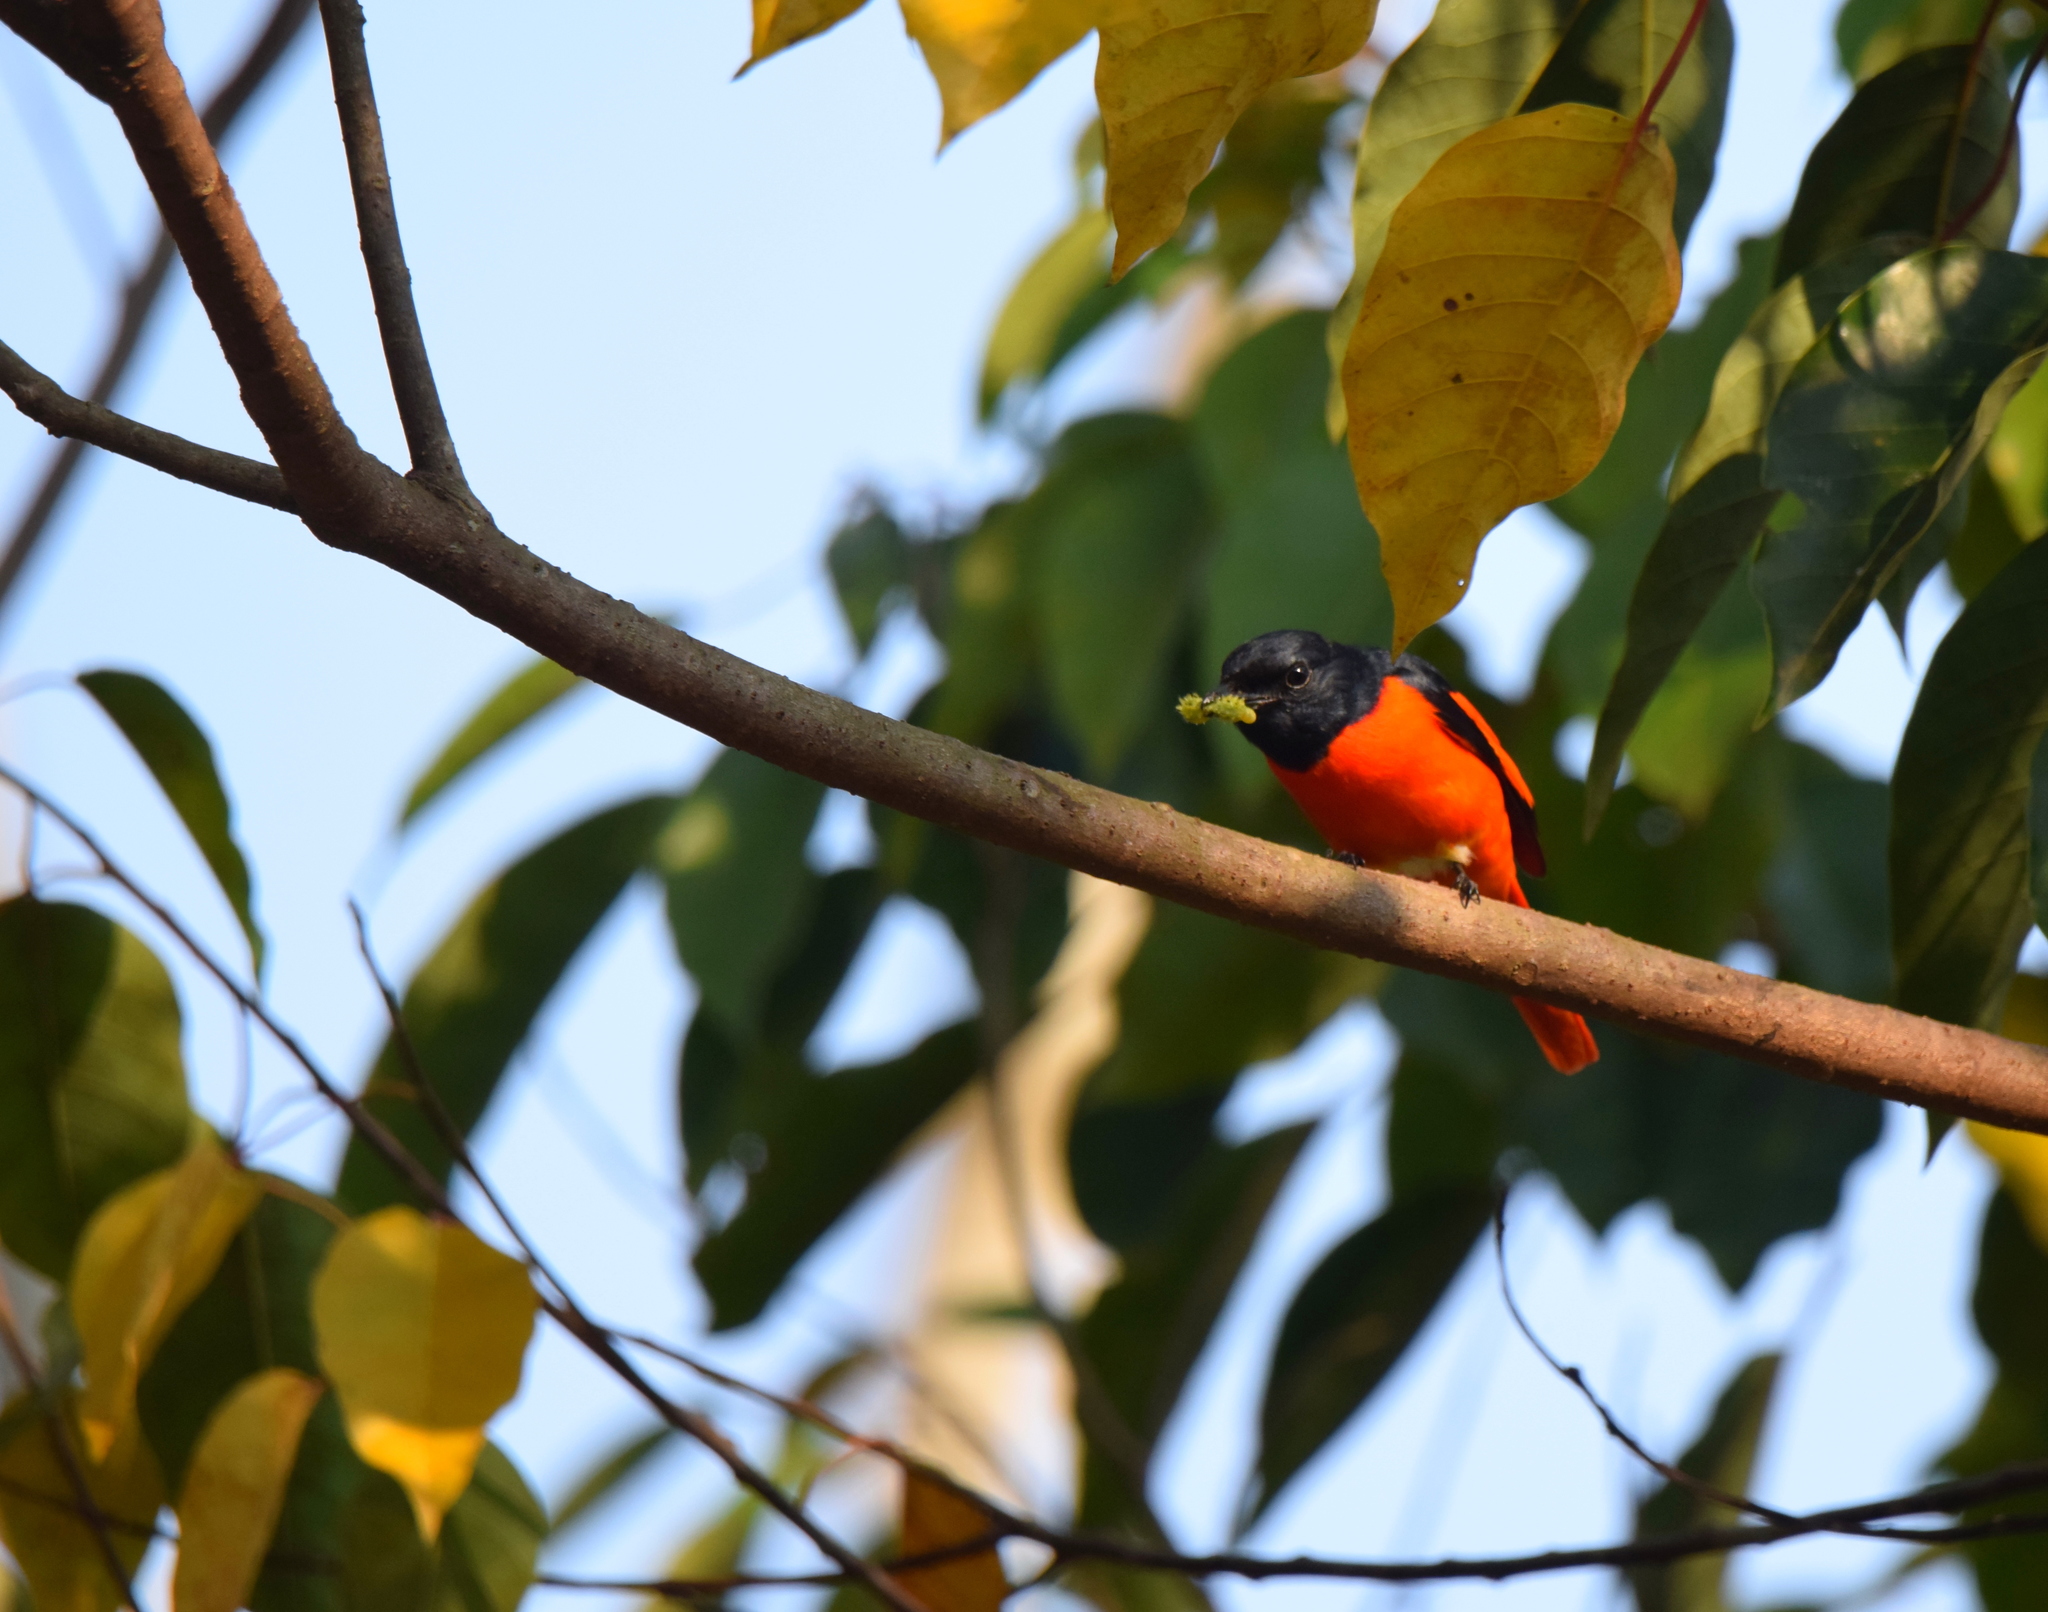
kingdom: Animalia
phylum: Chordata
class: Aves
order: Passeriformes
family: Campephagidae
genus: Pericrocotus
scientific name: Pericrocotus speciosus
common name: Scarlet minivet
